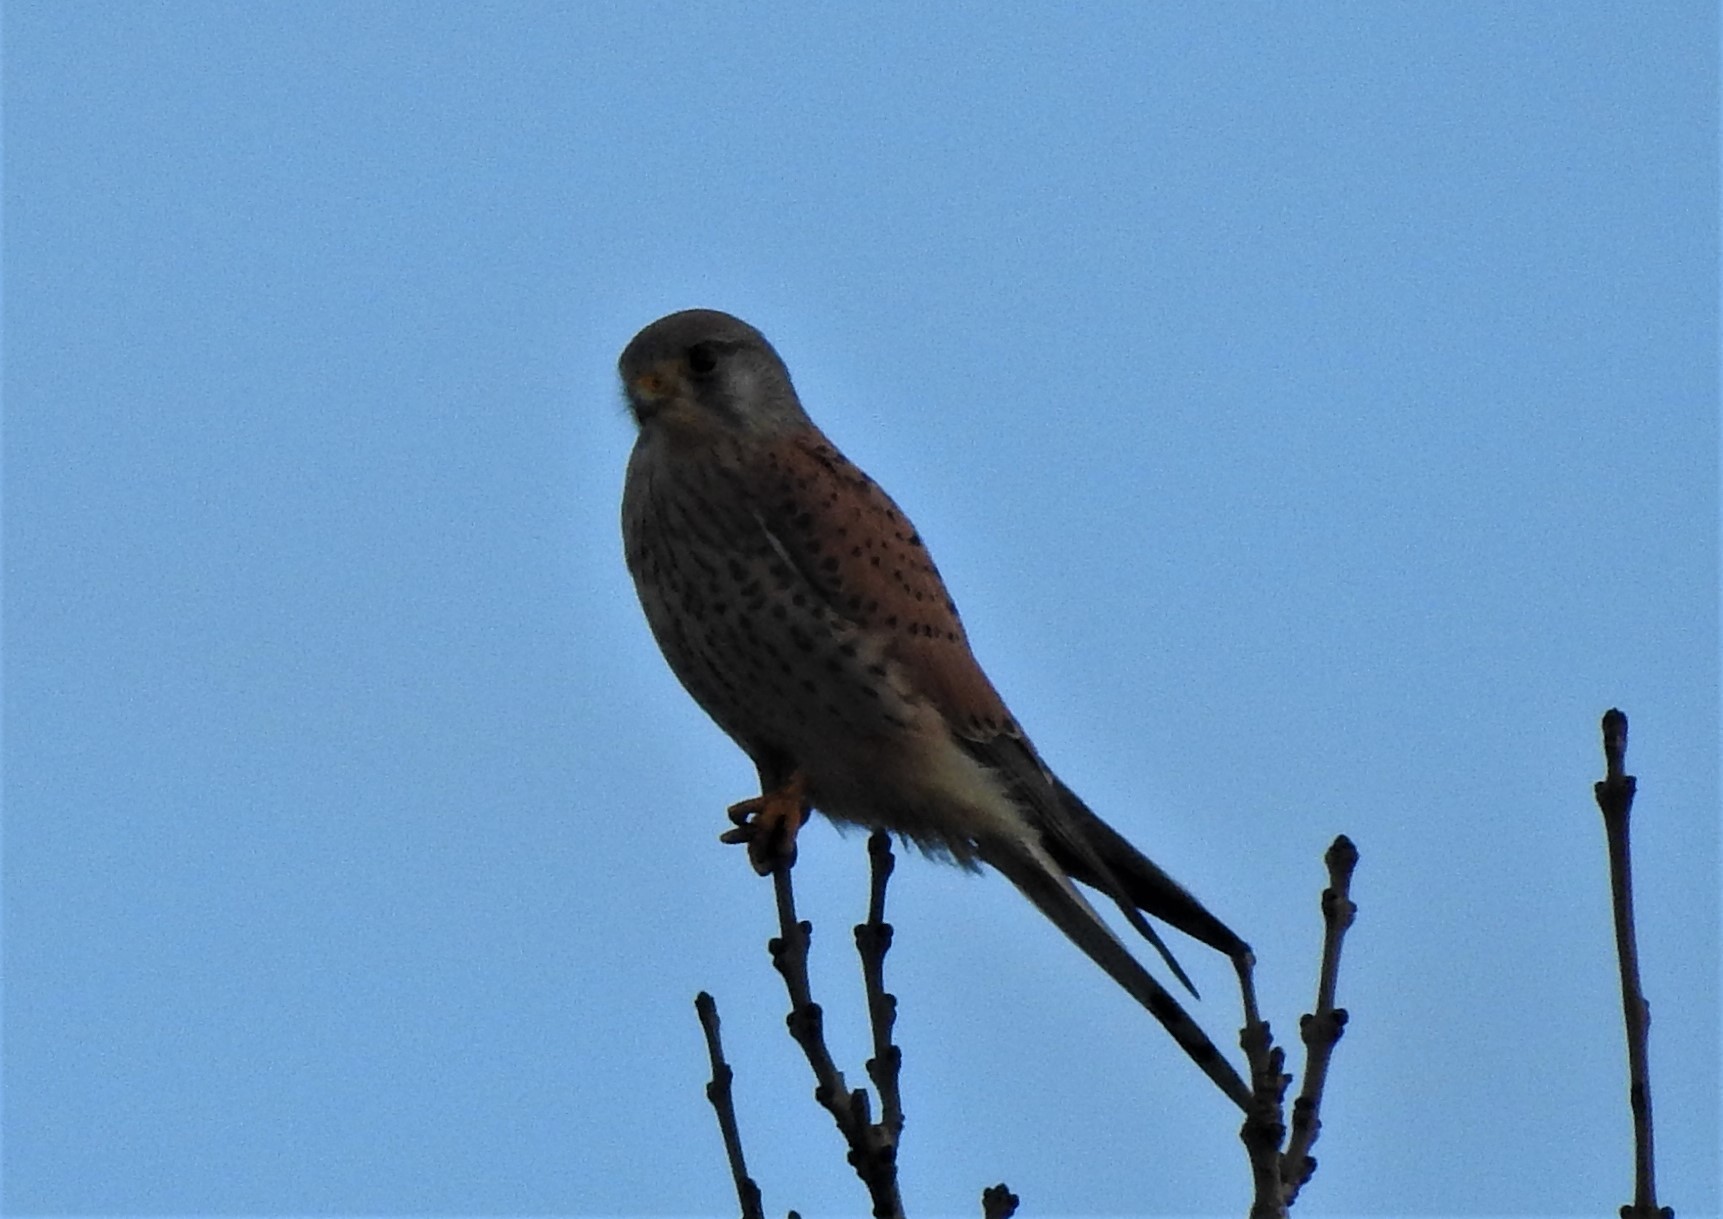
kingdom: Animalia
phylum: Chordata
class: Aves
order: Falconiformes
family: Falconidae
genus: Falco
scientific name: Falco tinnunculus
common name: Common kestrel
